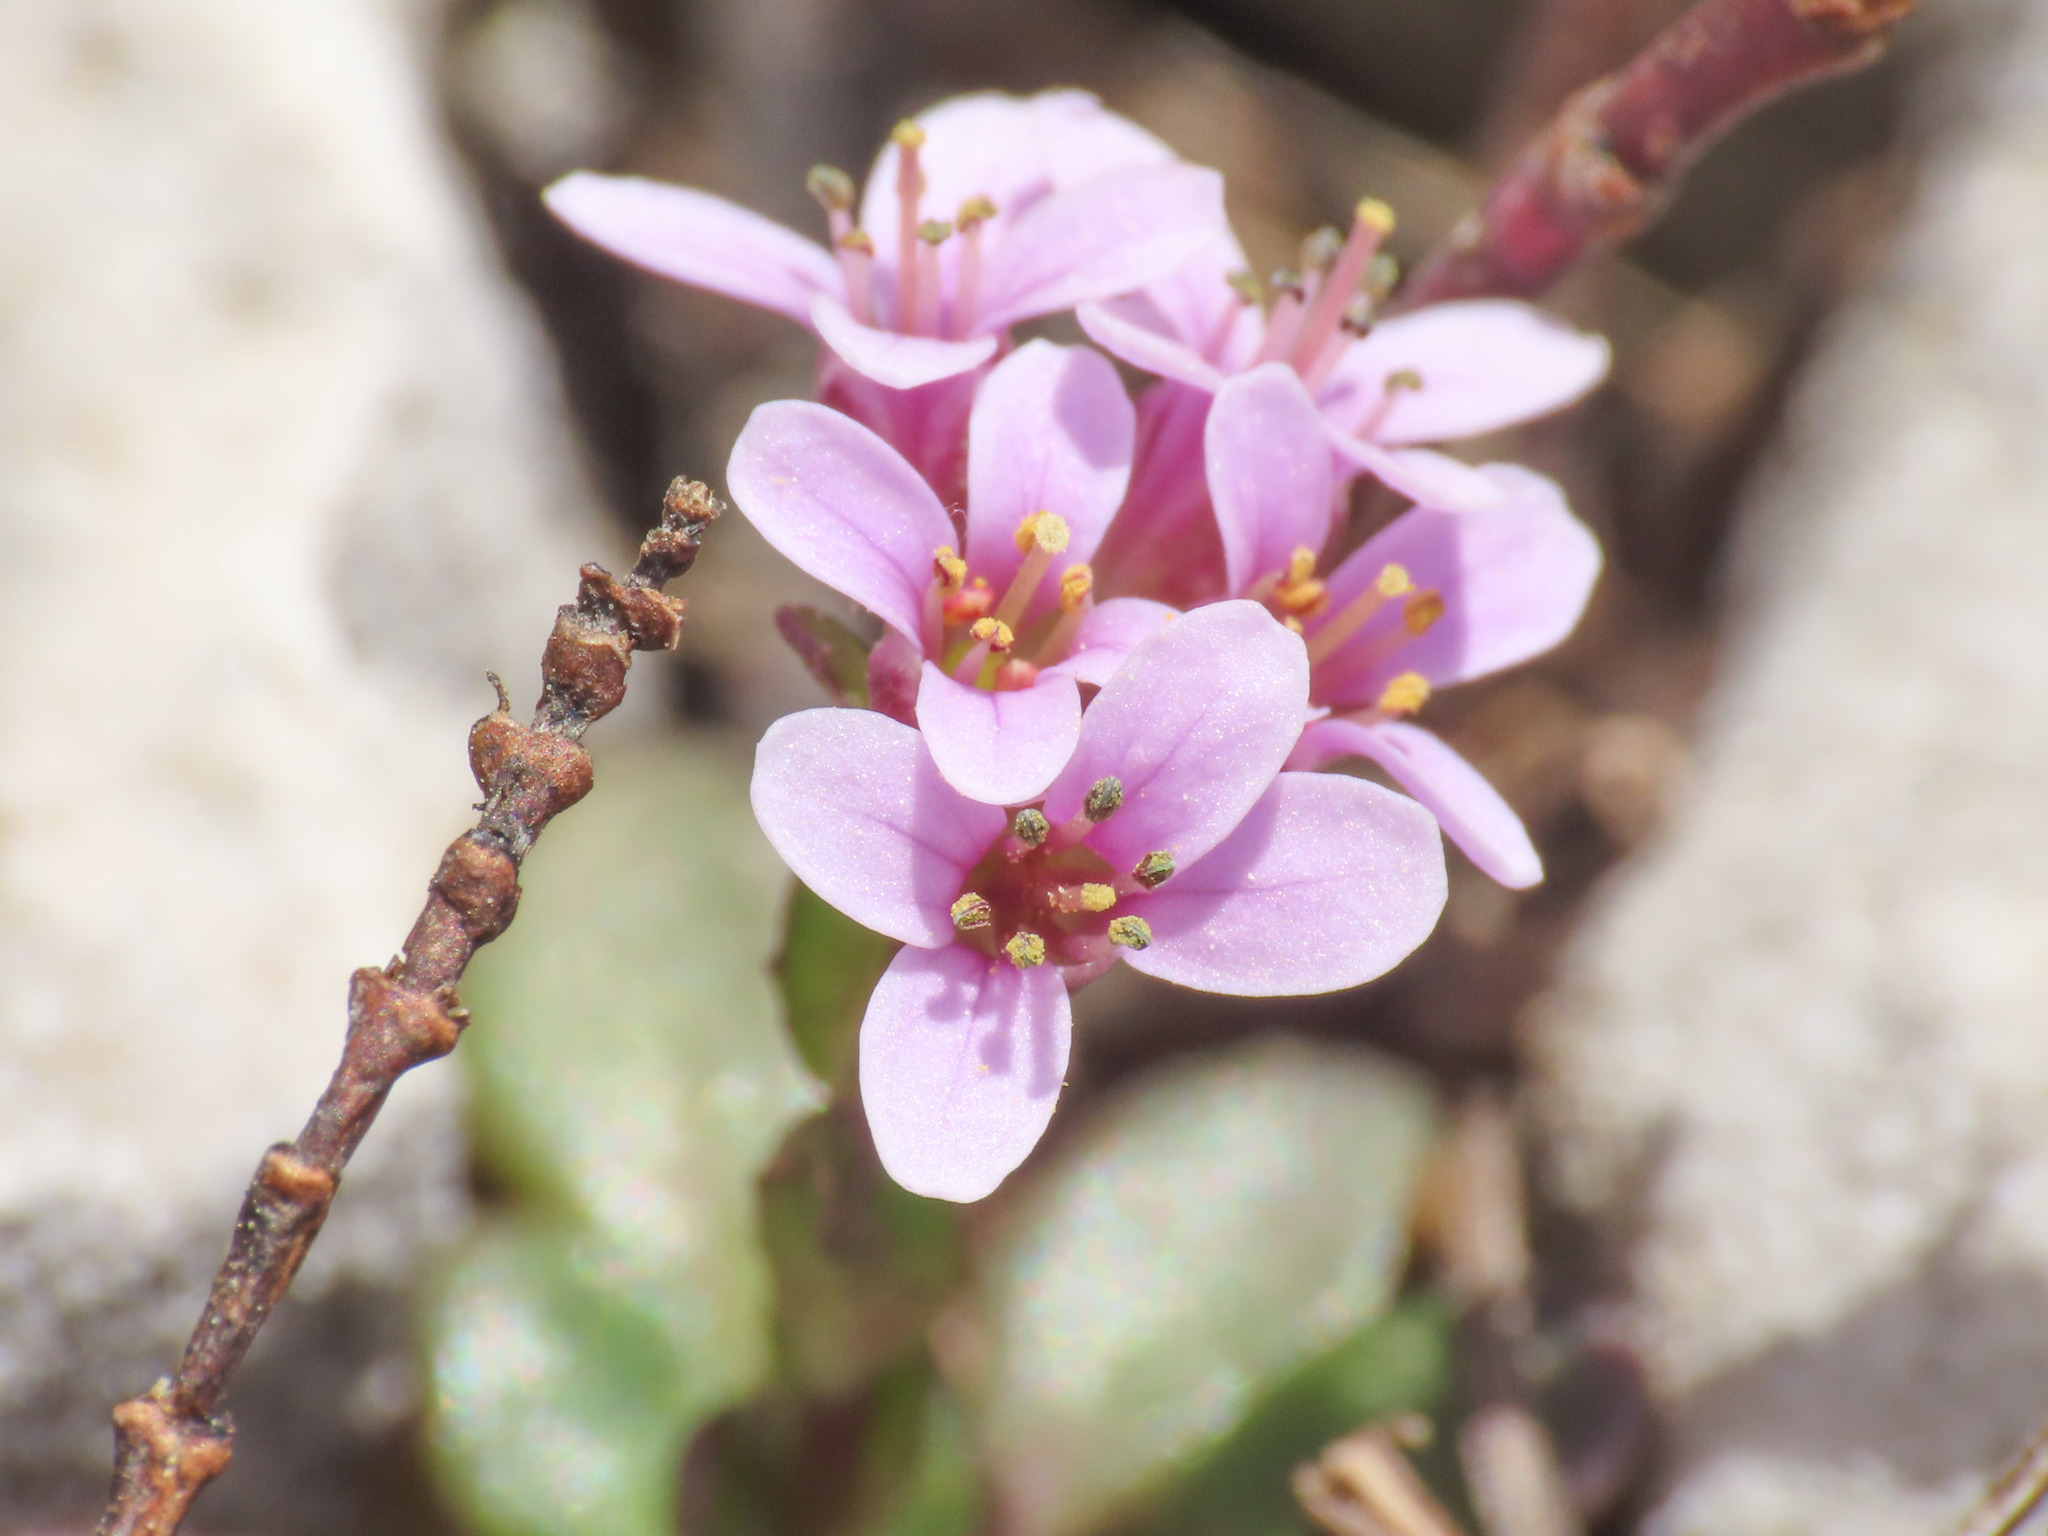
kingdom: Plantae
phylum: Tracheophyta
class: Magnoliopsida
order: Brassicales
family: Brassicaceae
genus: Noccaea
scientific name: Noccaea stilosa
